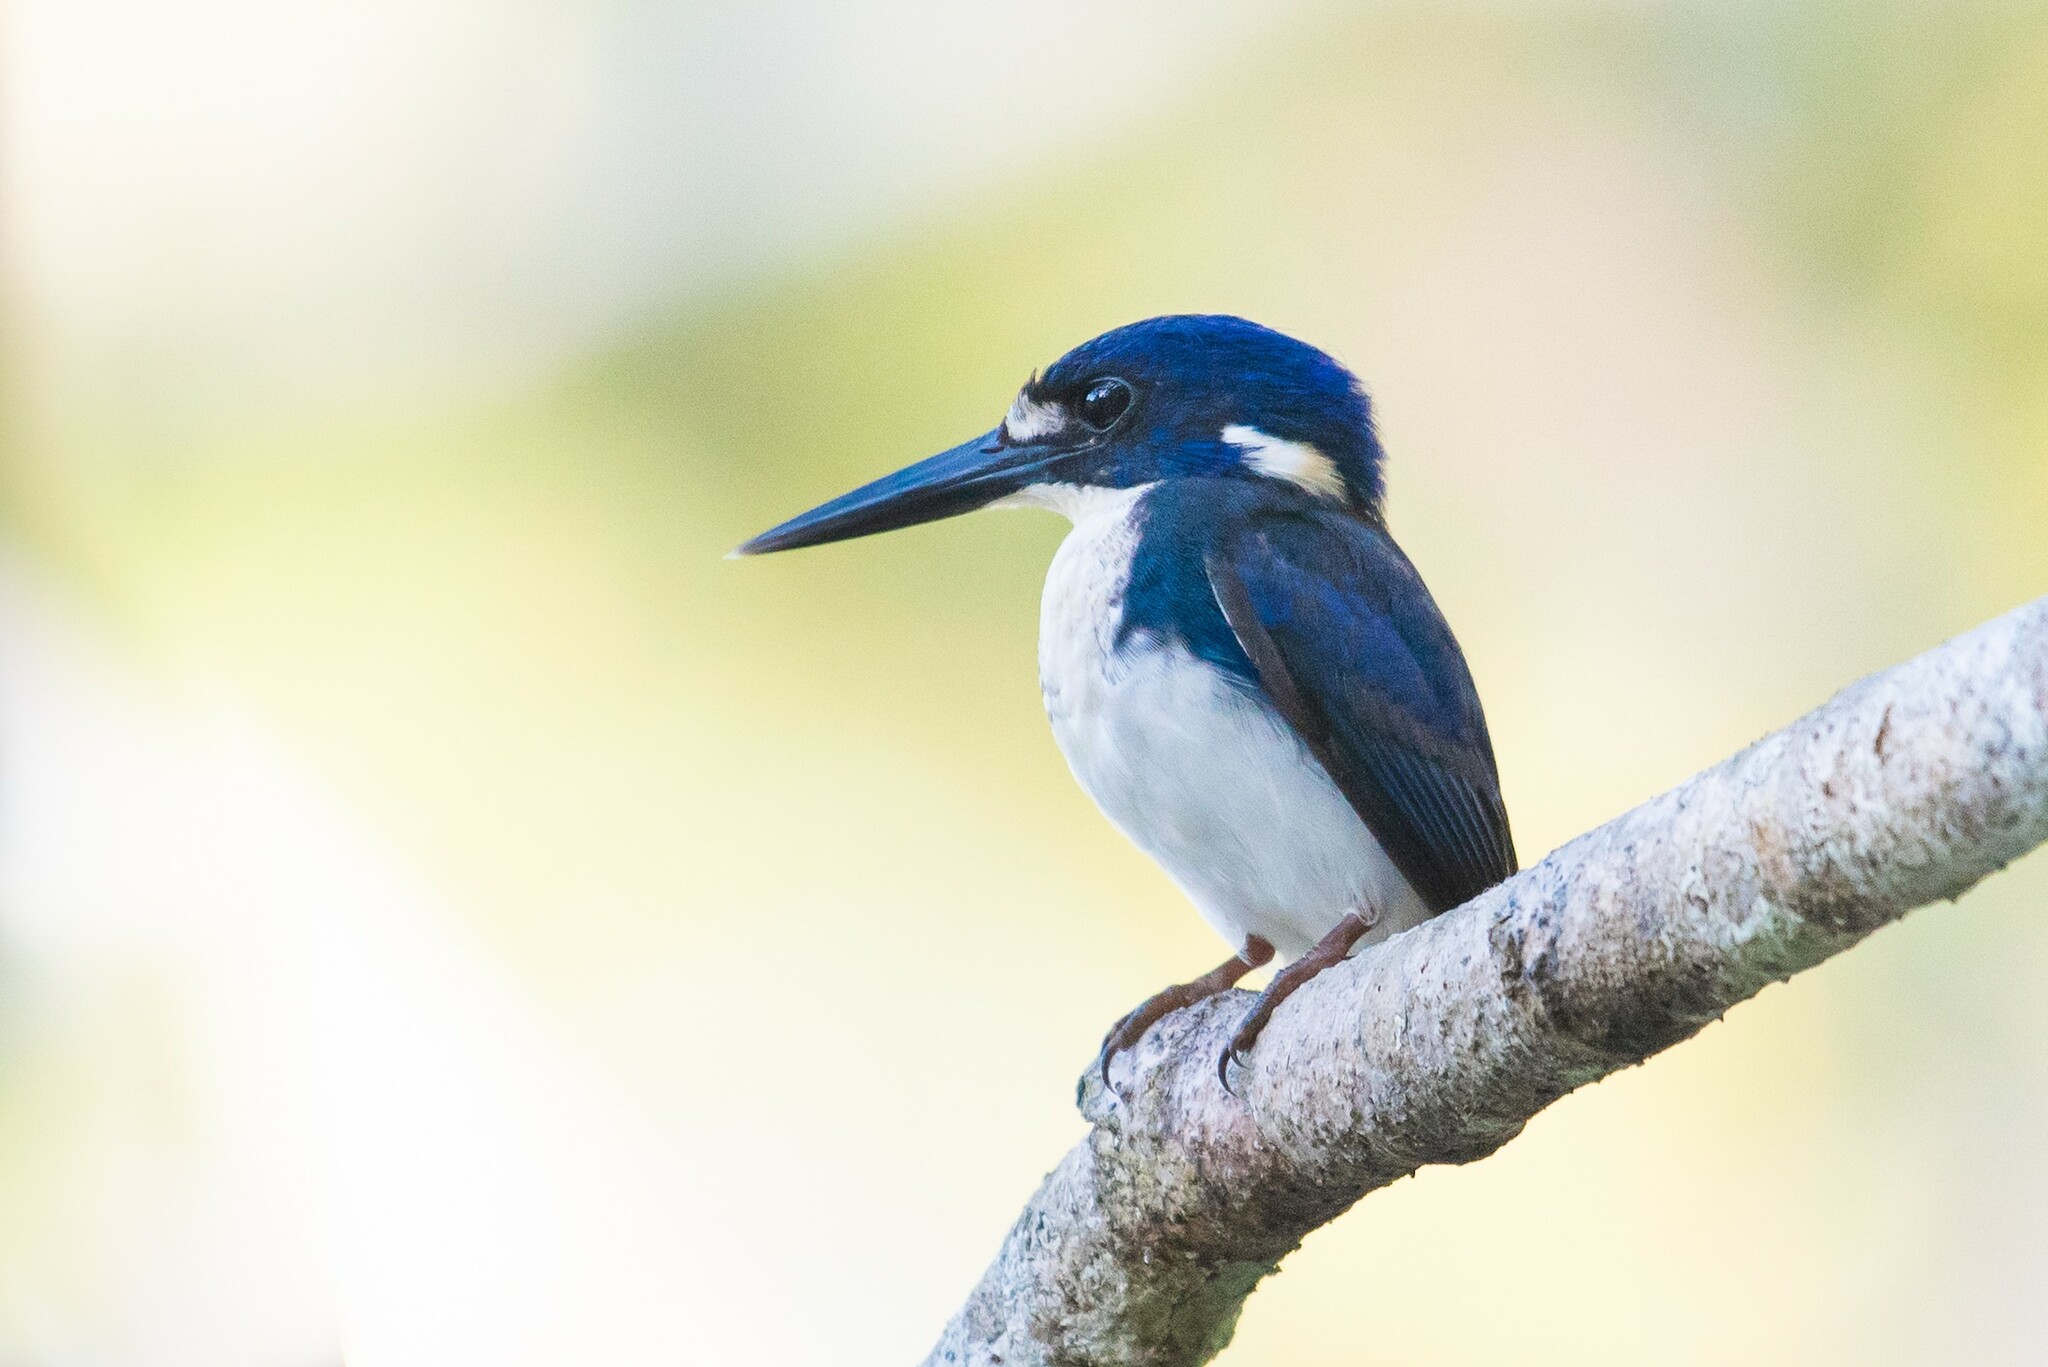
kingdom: Animalia
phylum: Chordata
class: Aves
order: Coraciiformes
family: Alcedinidae
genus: Ceyx
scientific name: Ceyx pusillus
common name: Little kingfisher
